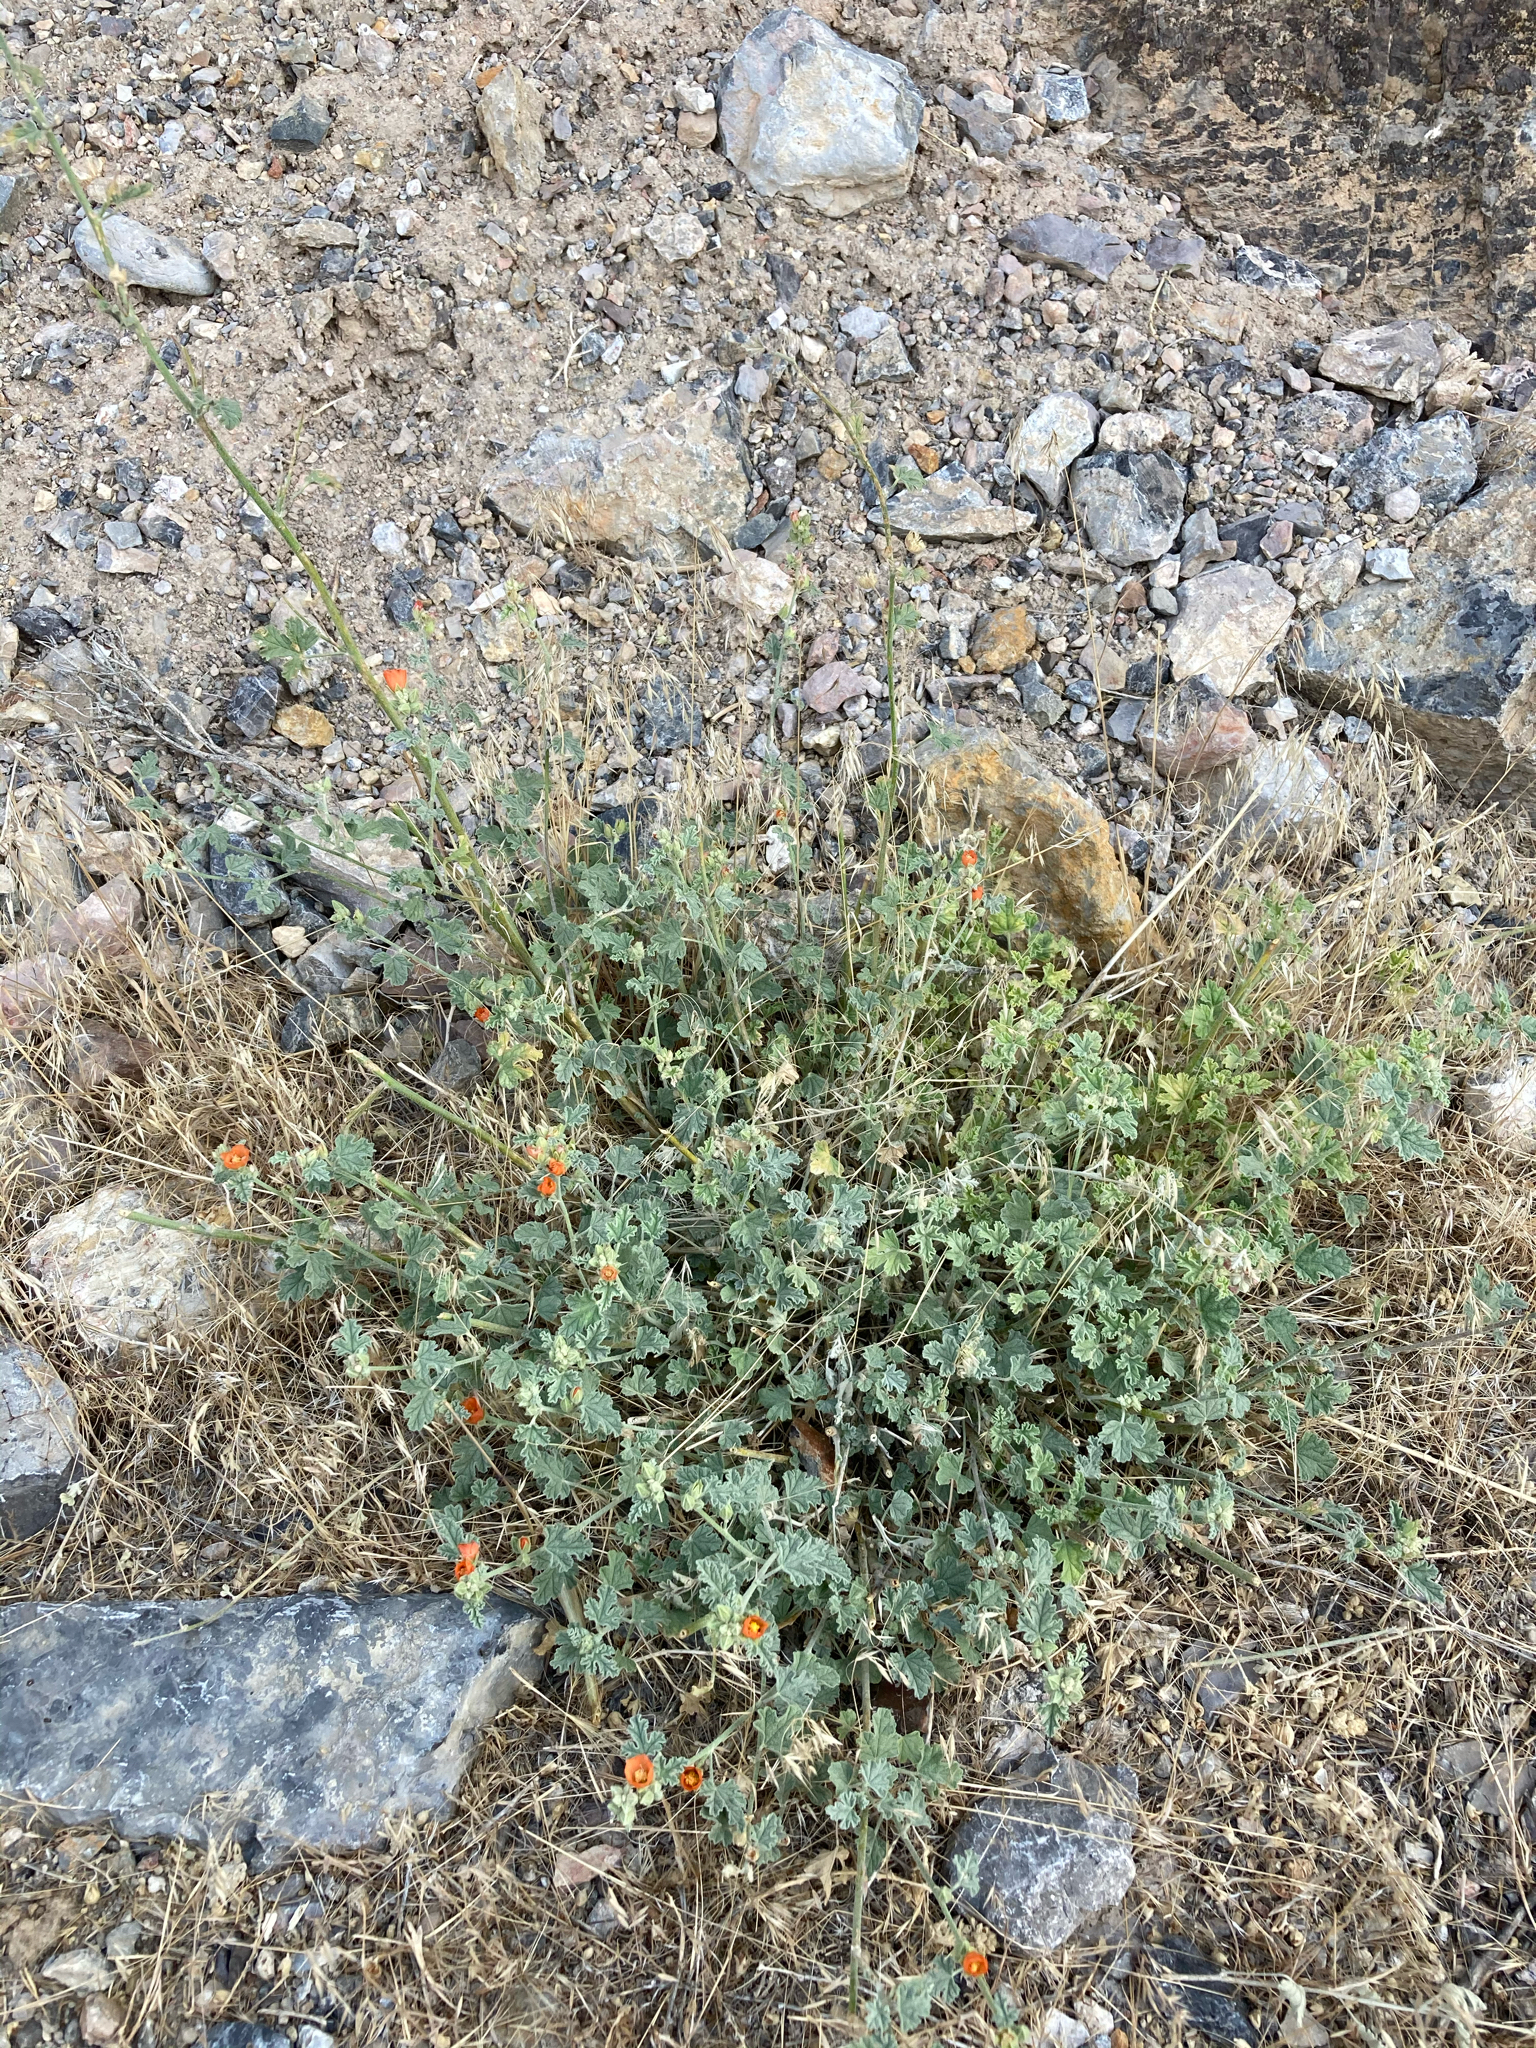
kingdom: Plantae
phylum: Tracheophyta
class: Magnoliopsida
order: Malvales
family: Malvaceae
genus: Sphaeralcea
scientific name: Sphaeralcea ambigua
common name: Apricot globe-mallow
